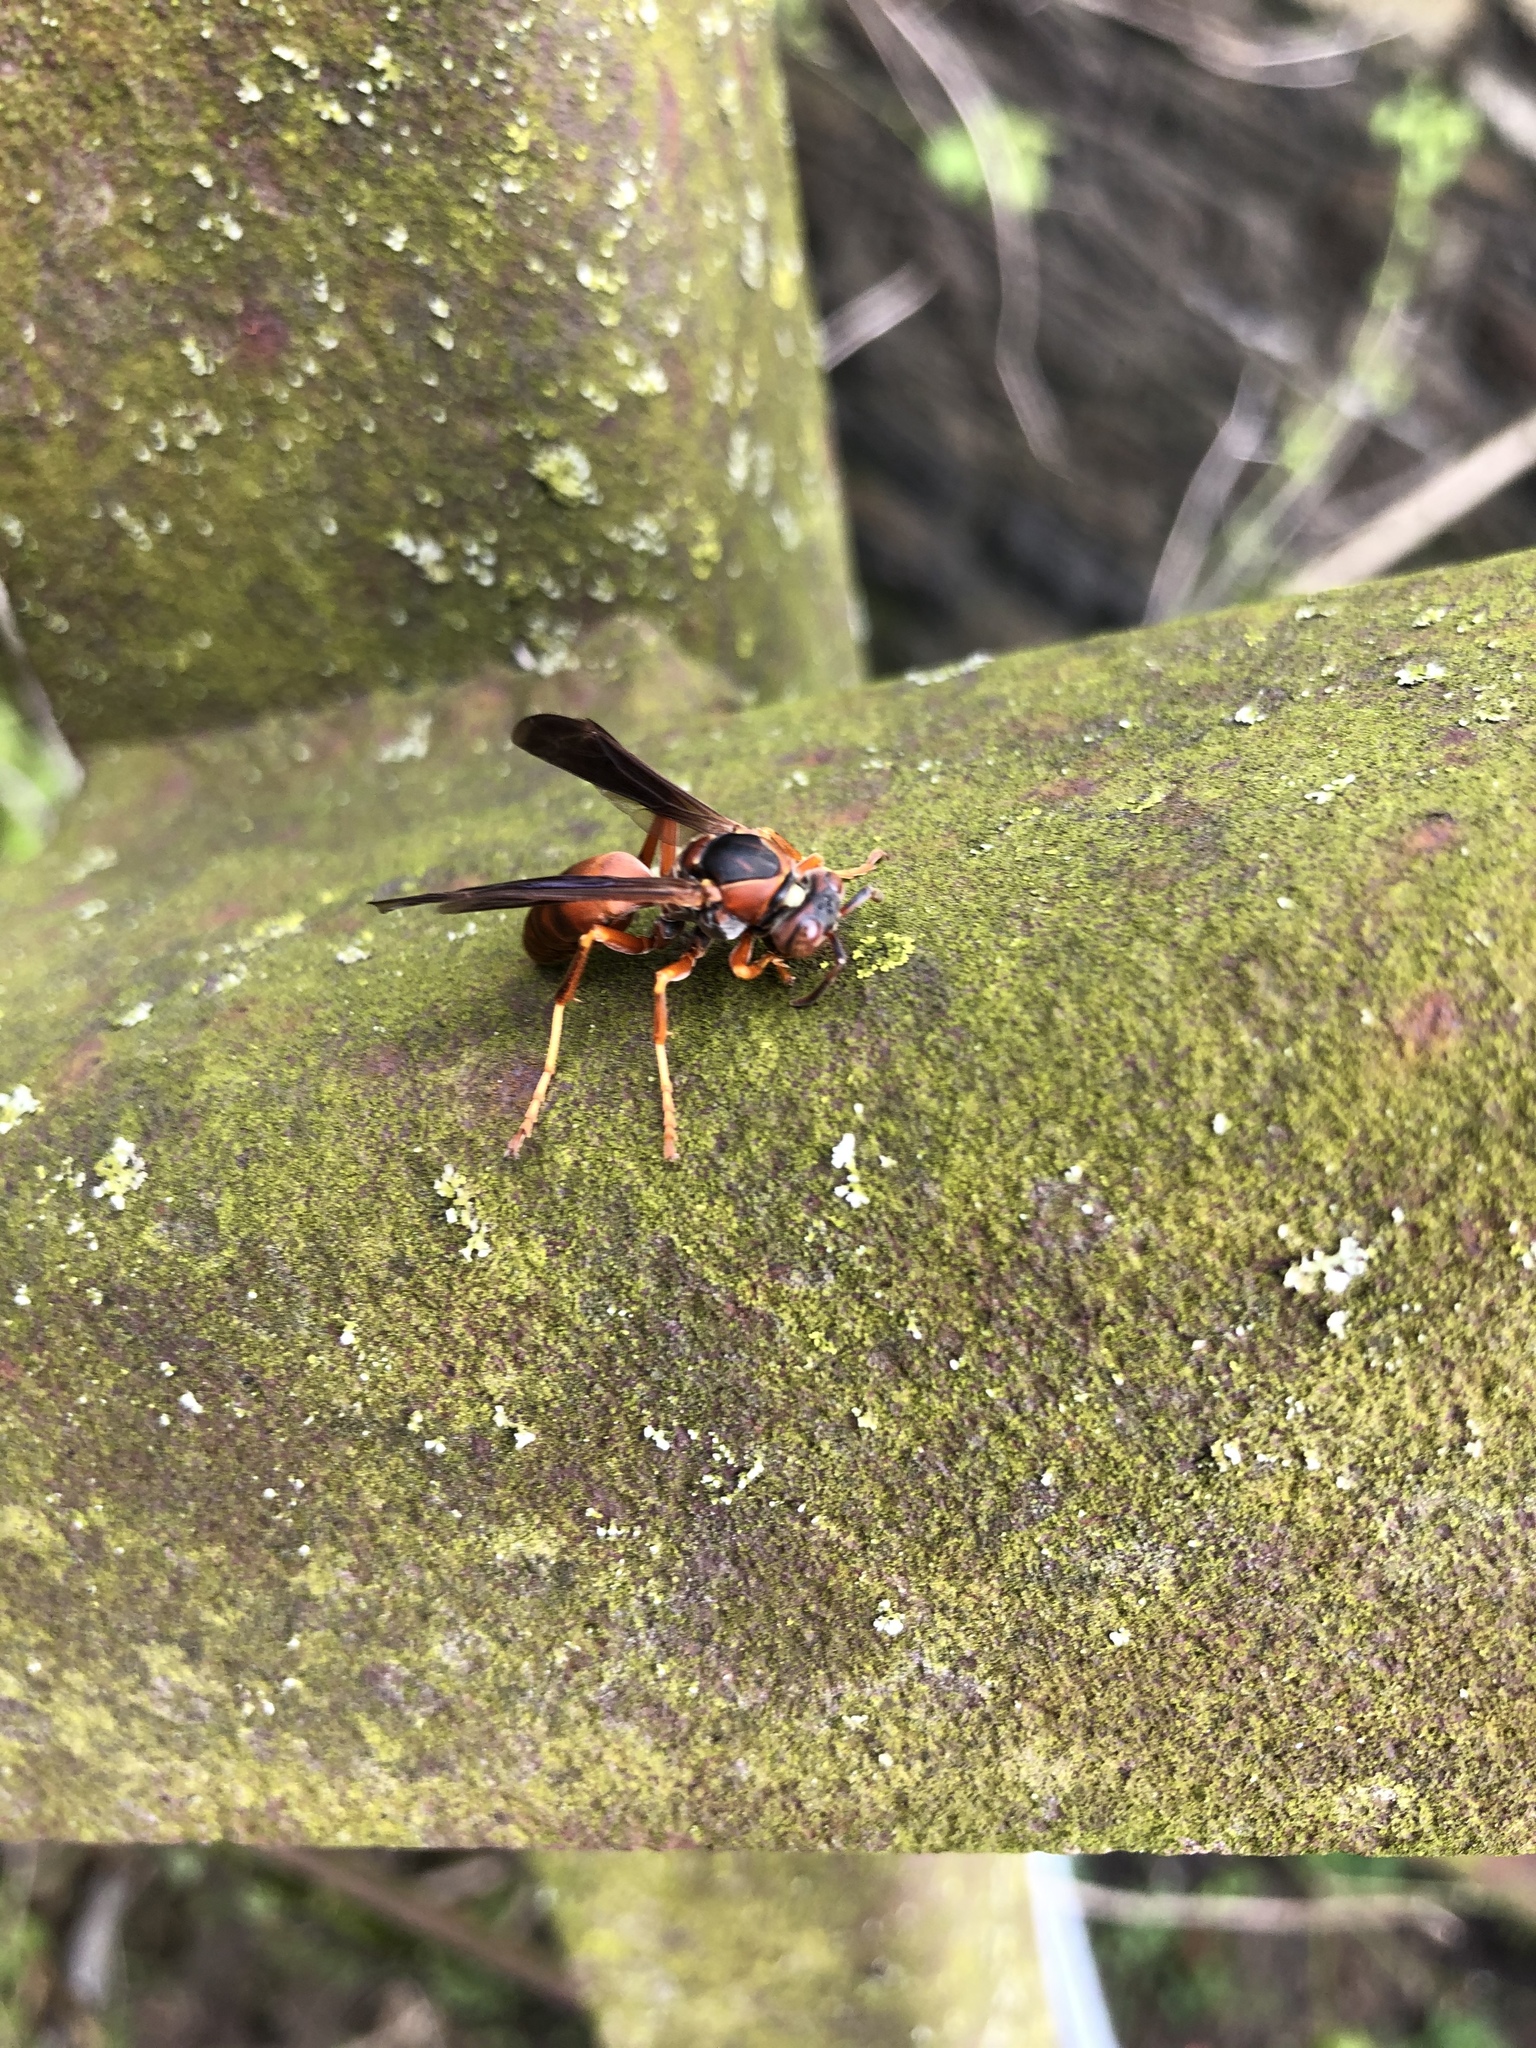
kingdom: Animalia
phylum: Arthropoda
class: Insecta
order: Hymenoptera
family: Eumenidae
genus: Polistes
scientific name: Polistes fuscatus
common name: Dark paper wasp
